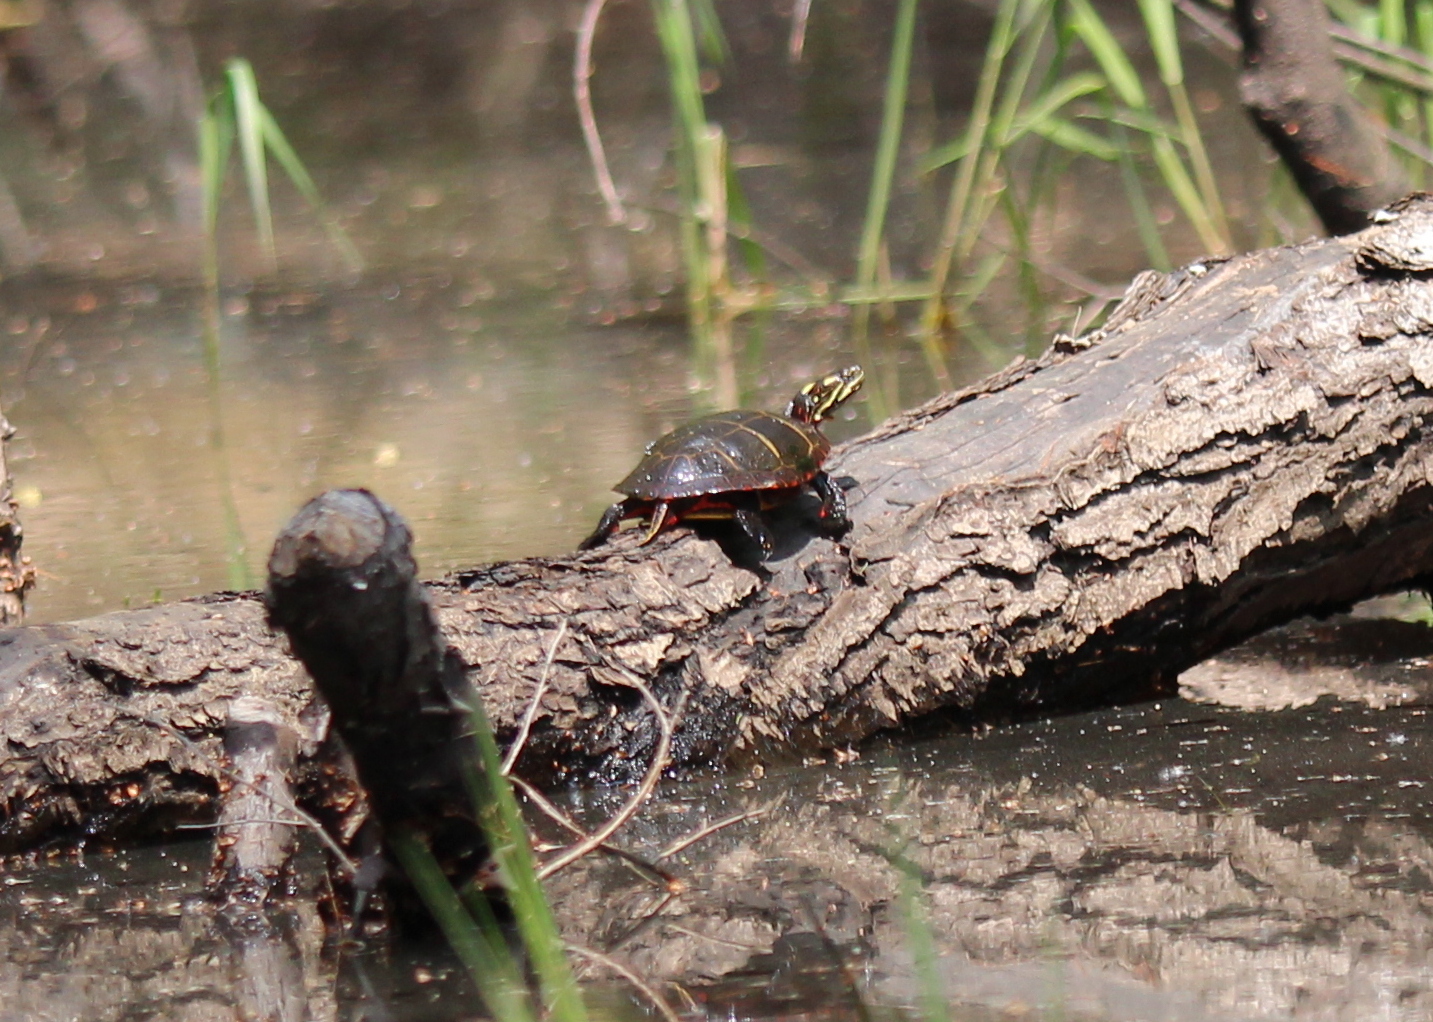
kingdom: Animalia
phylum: Chordata
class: Testudines
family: Emydidae
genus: Chrysemys
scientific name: Chrysemys picta
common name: Painted turtle
